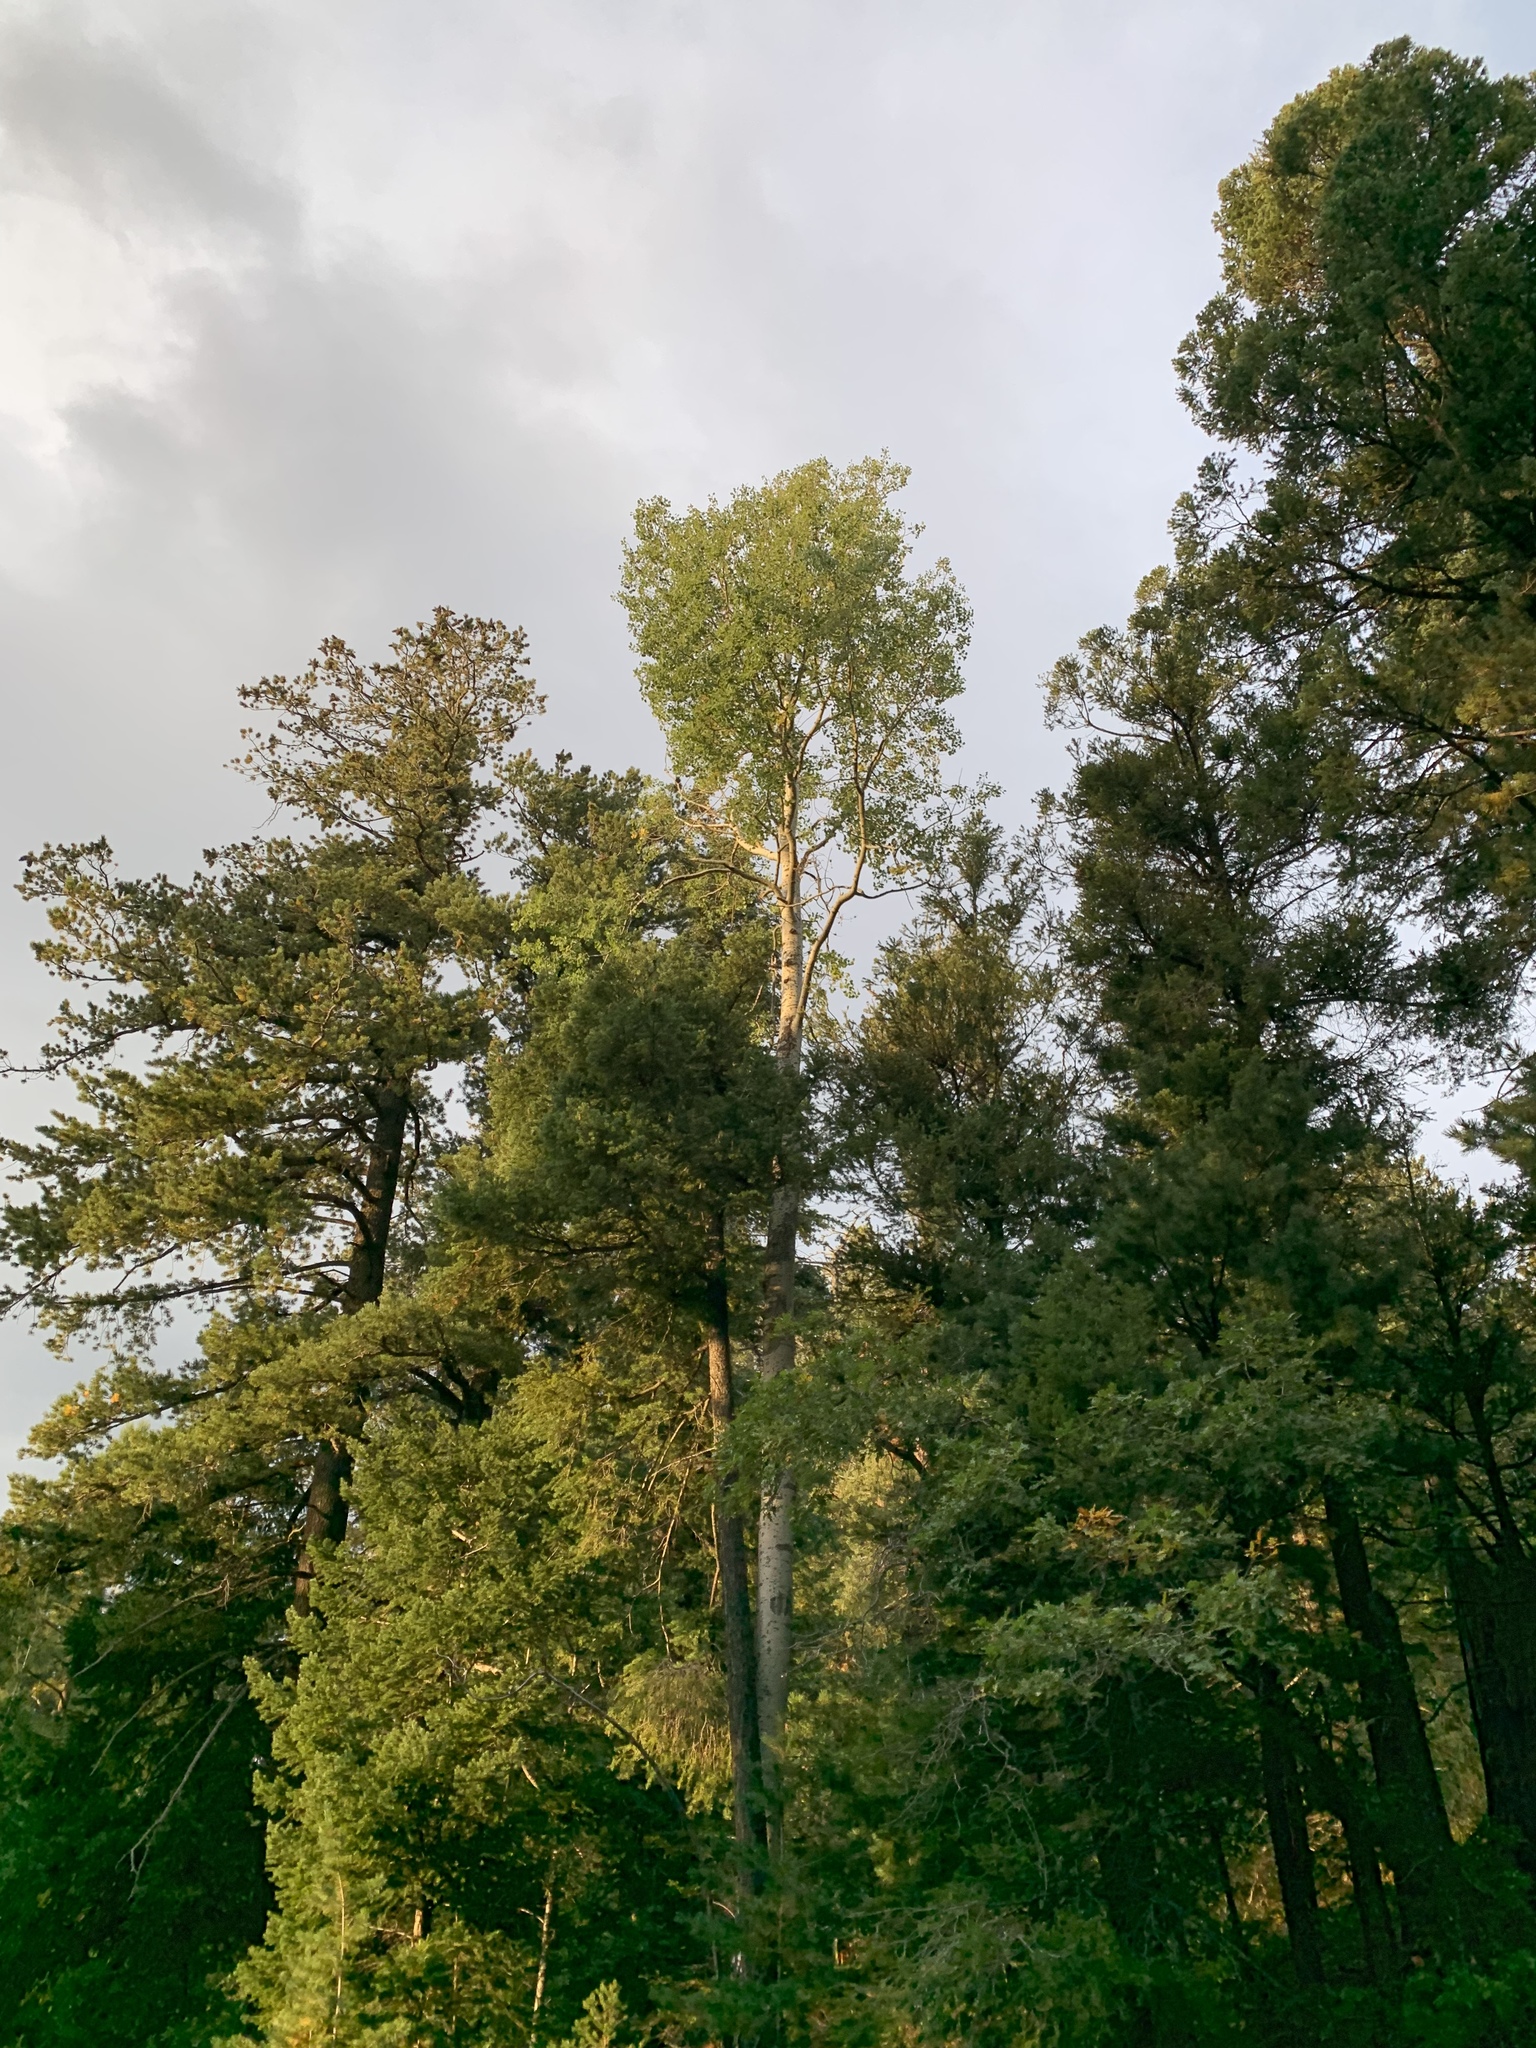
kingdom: Plantae
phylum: Tracheophyta
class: Magnoliopsida
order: Malpighiales
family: Salicaceae
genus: Populus
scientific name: Populus tremuloides
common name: Quaking aspen
